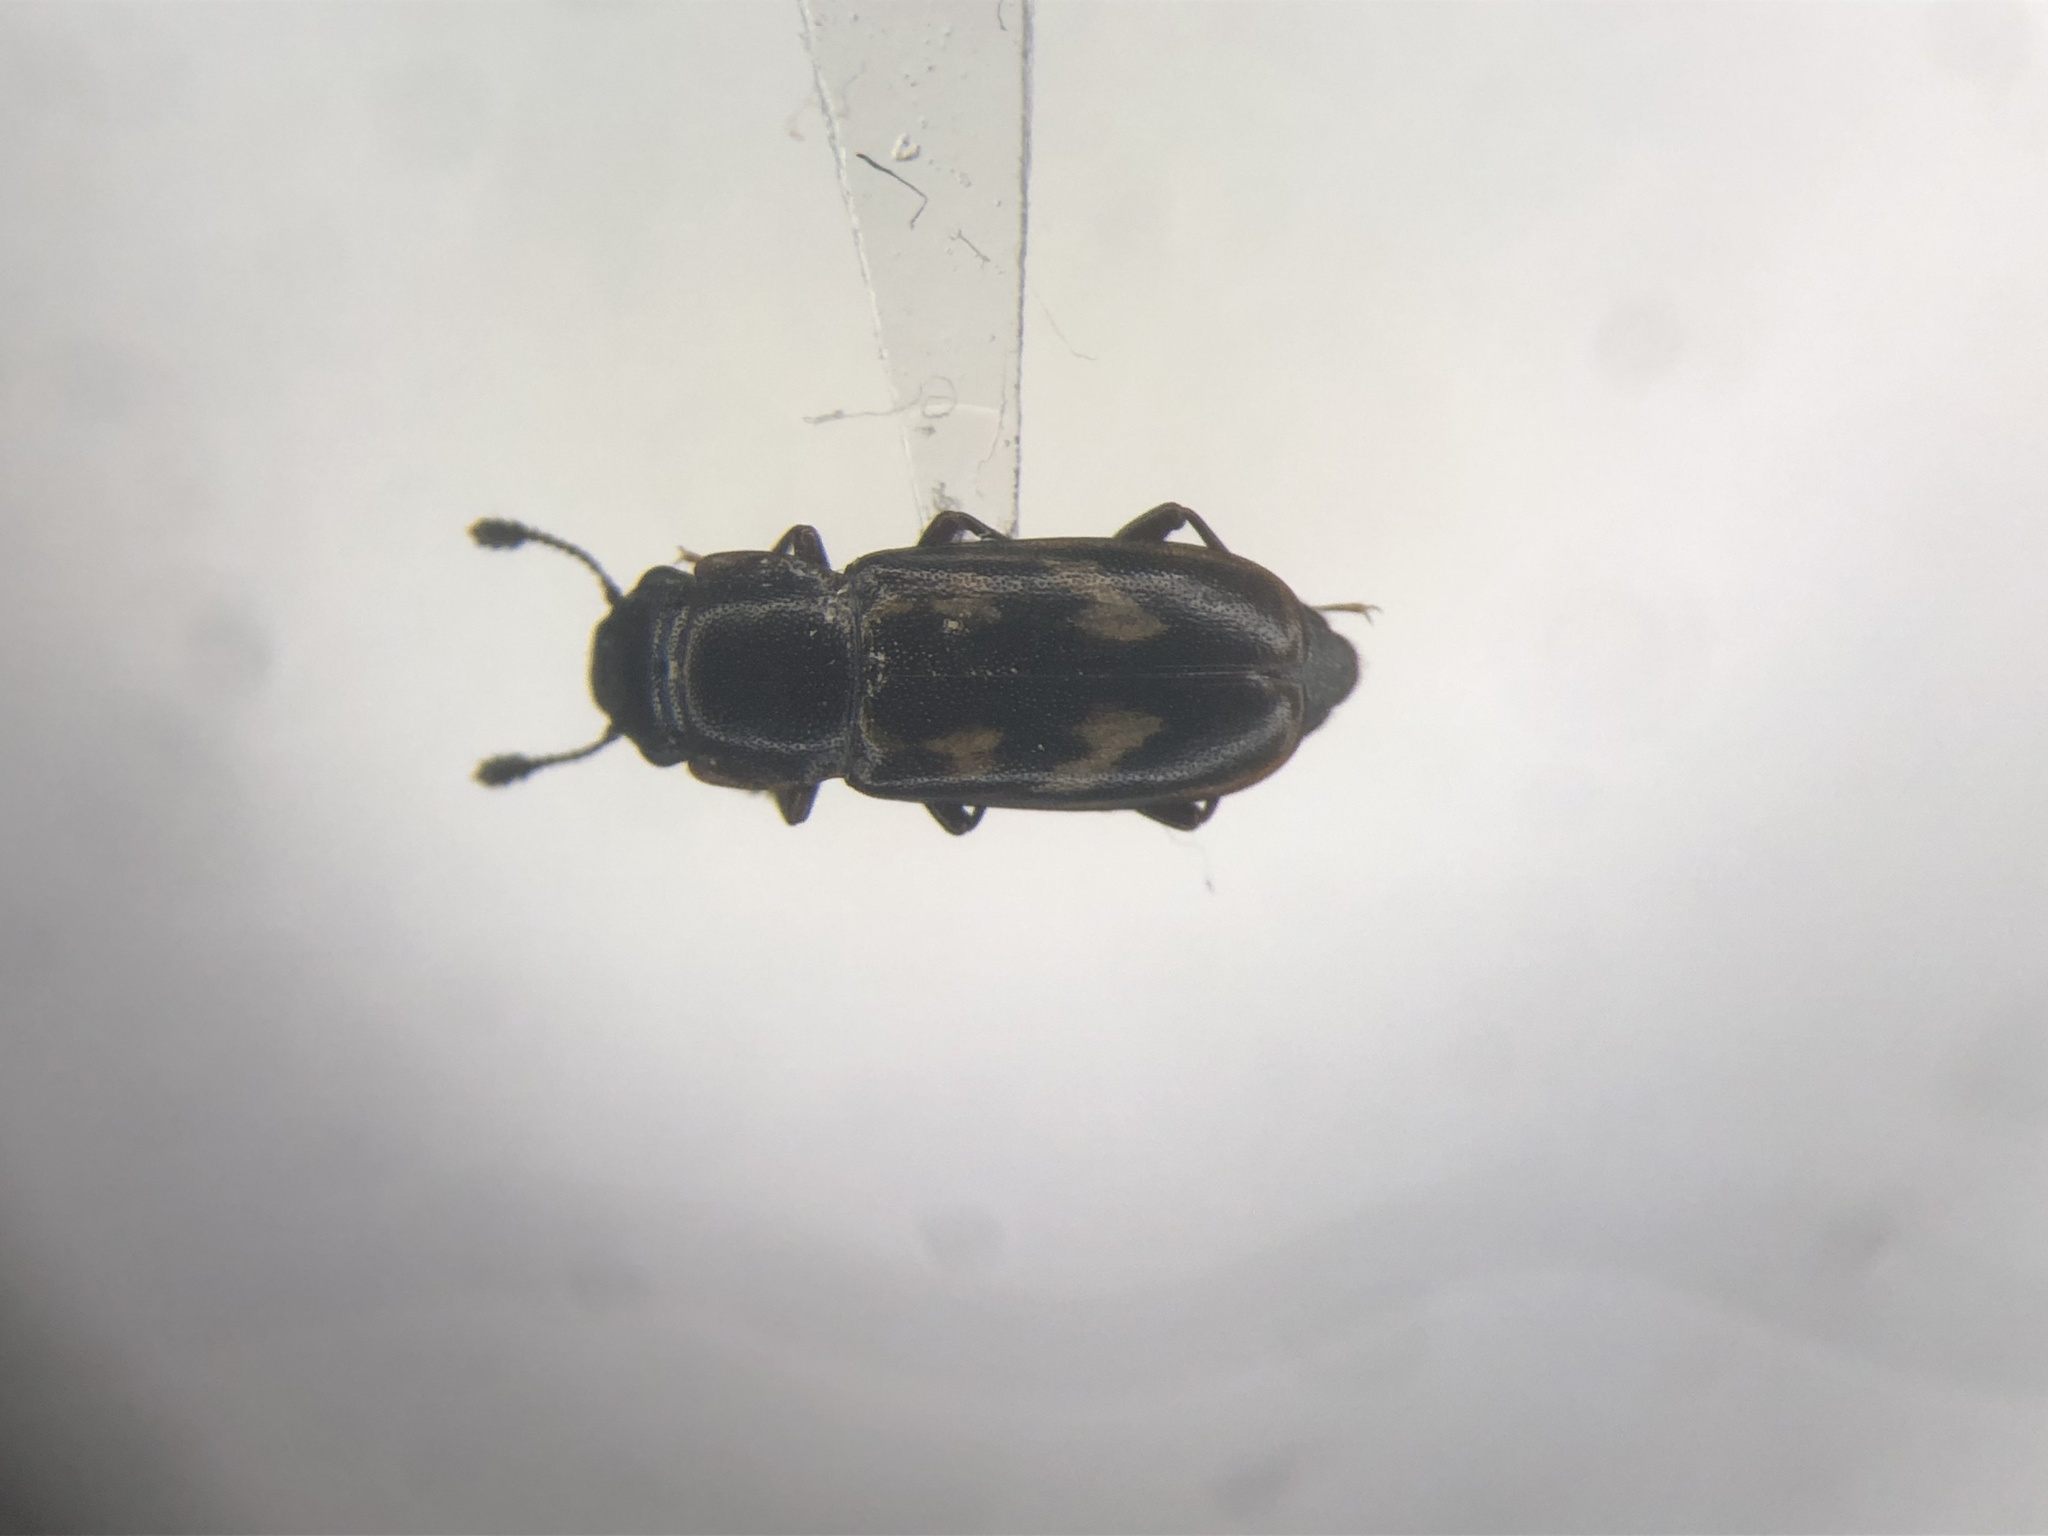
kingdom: Animalia
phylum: Arthropoda
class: Insecta
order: Coleoptera
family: Nitidulidae
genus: Glischrochilus
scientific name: Glischrochilus vittatus
